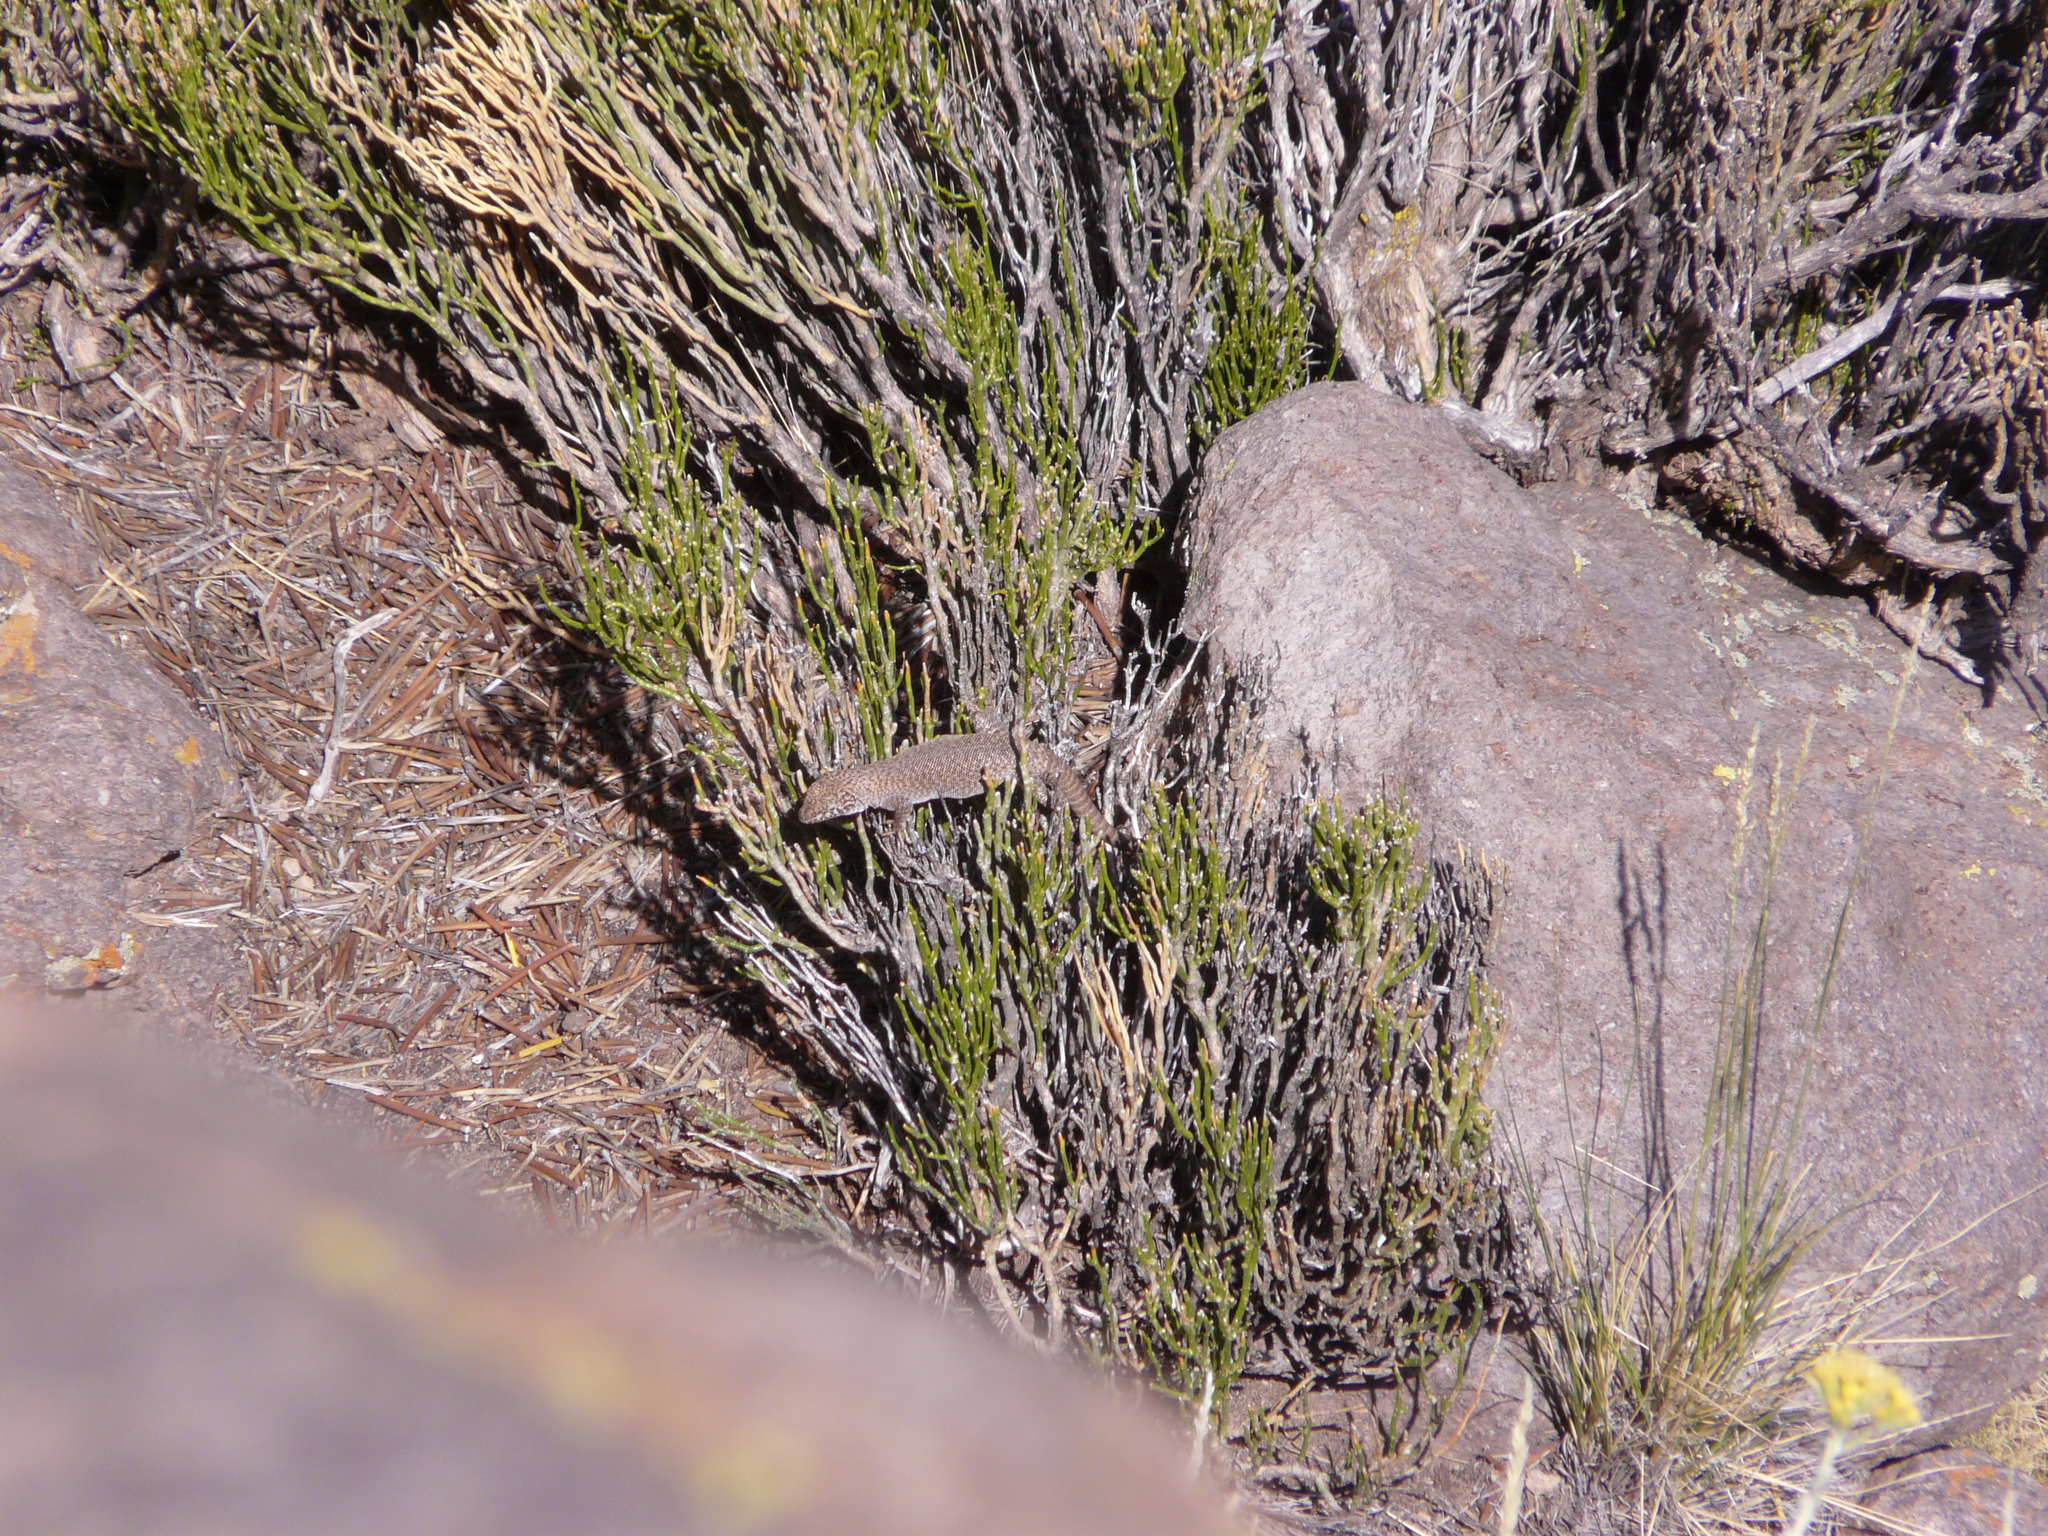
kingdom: Animalia
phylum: Chordata
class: Squamata
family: Liolaemidae
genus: Liolaemus
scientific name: Liolaemus austromendocinus
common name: Austromendocino tree iguana
